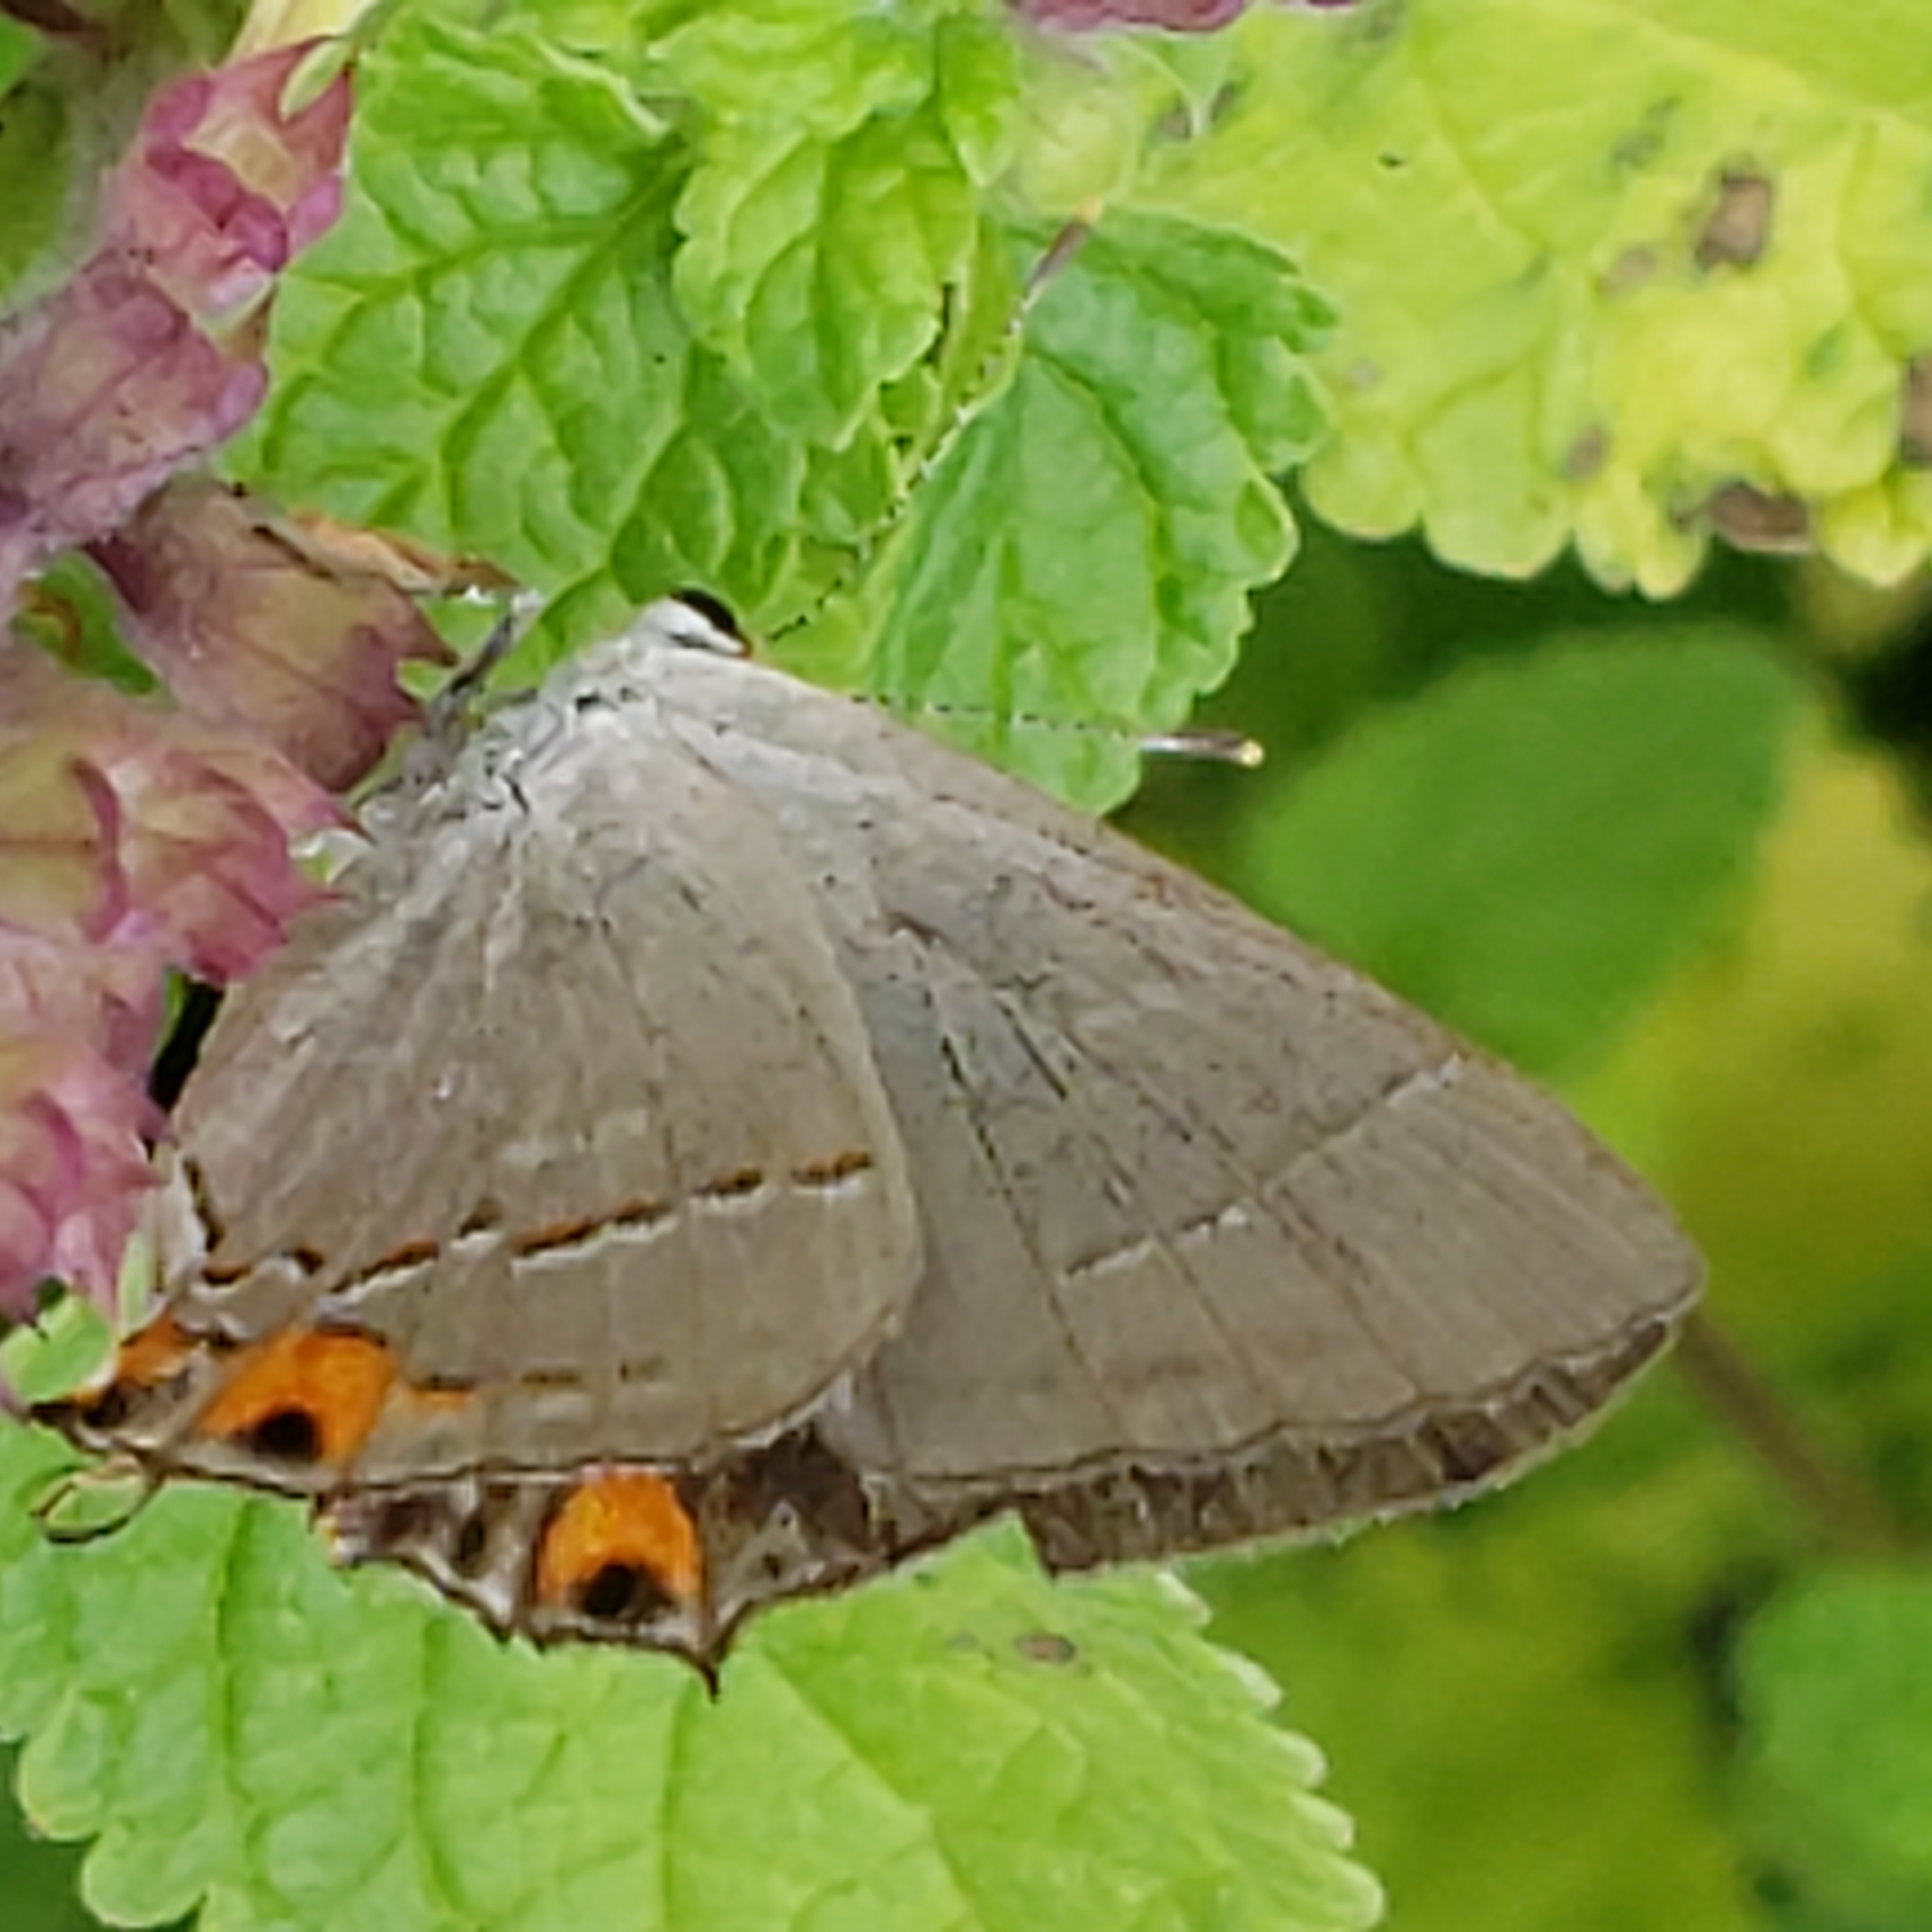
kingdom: Animalia
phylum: Arthropoda
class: Insecta
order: Lepidoptera
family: Lycaenidae
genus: Strymon
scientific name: Strymon melinus
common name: Gray hairstreak
